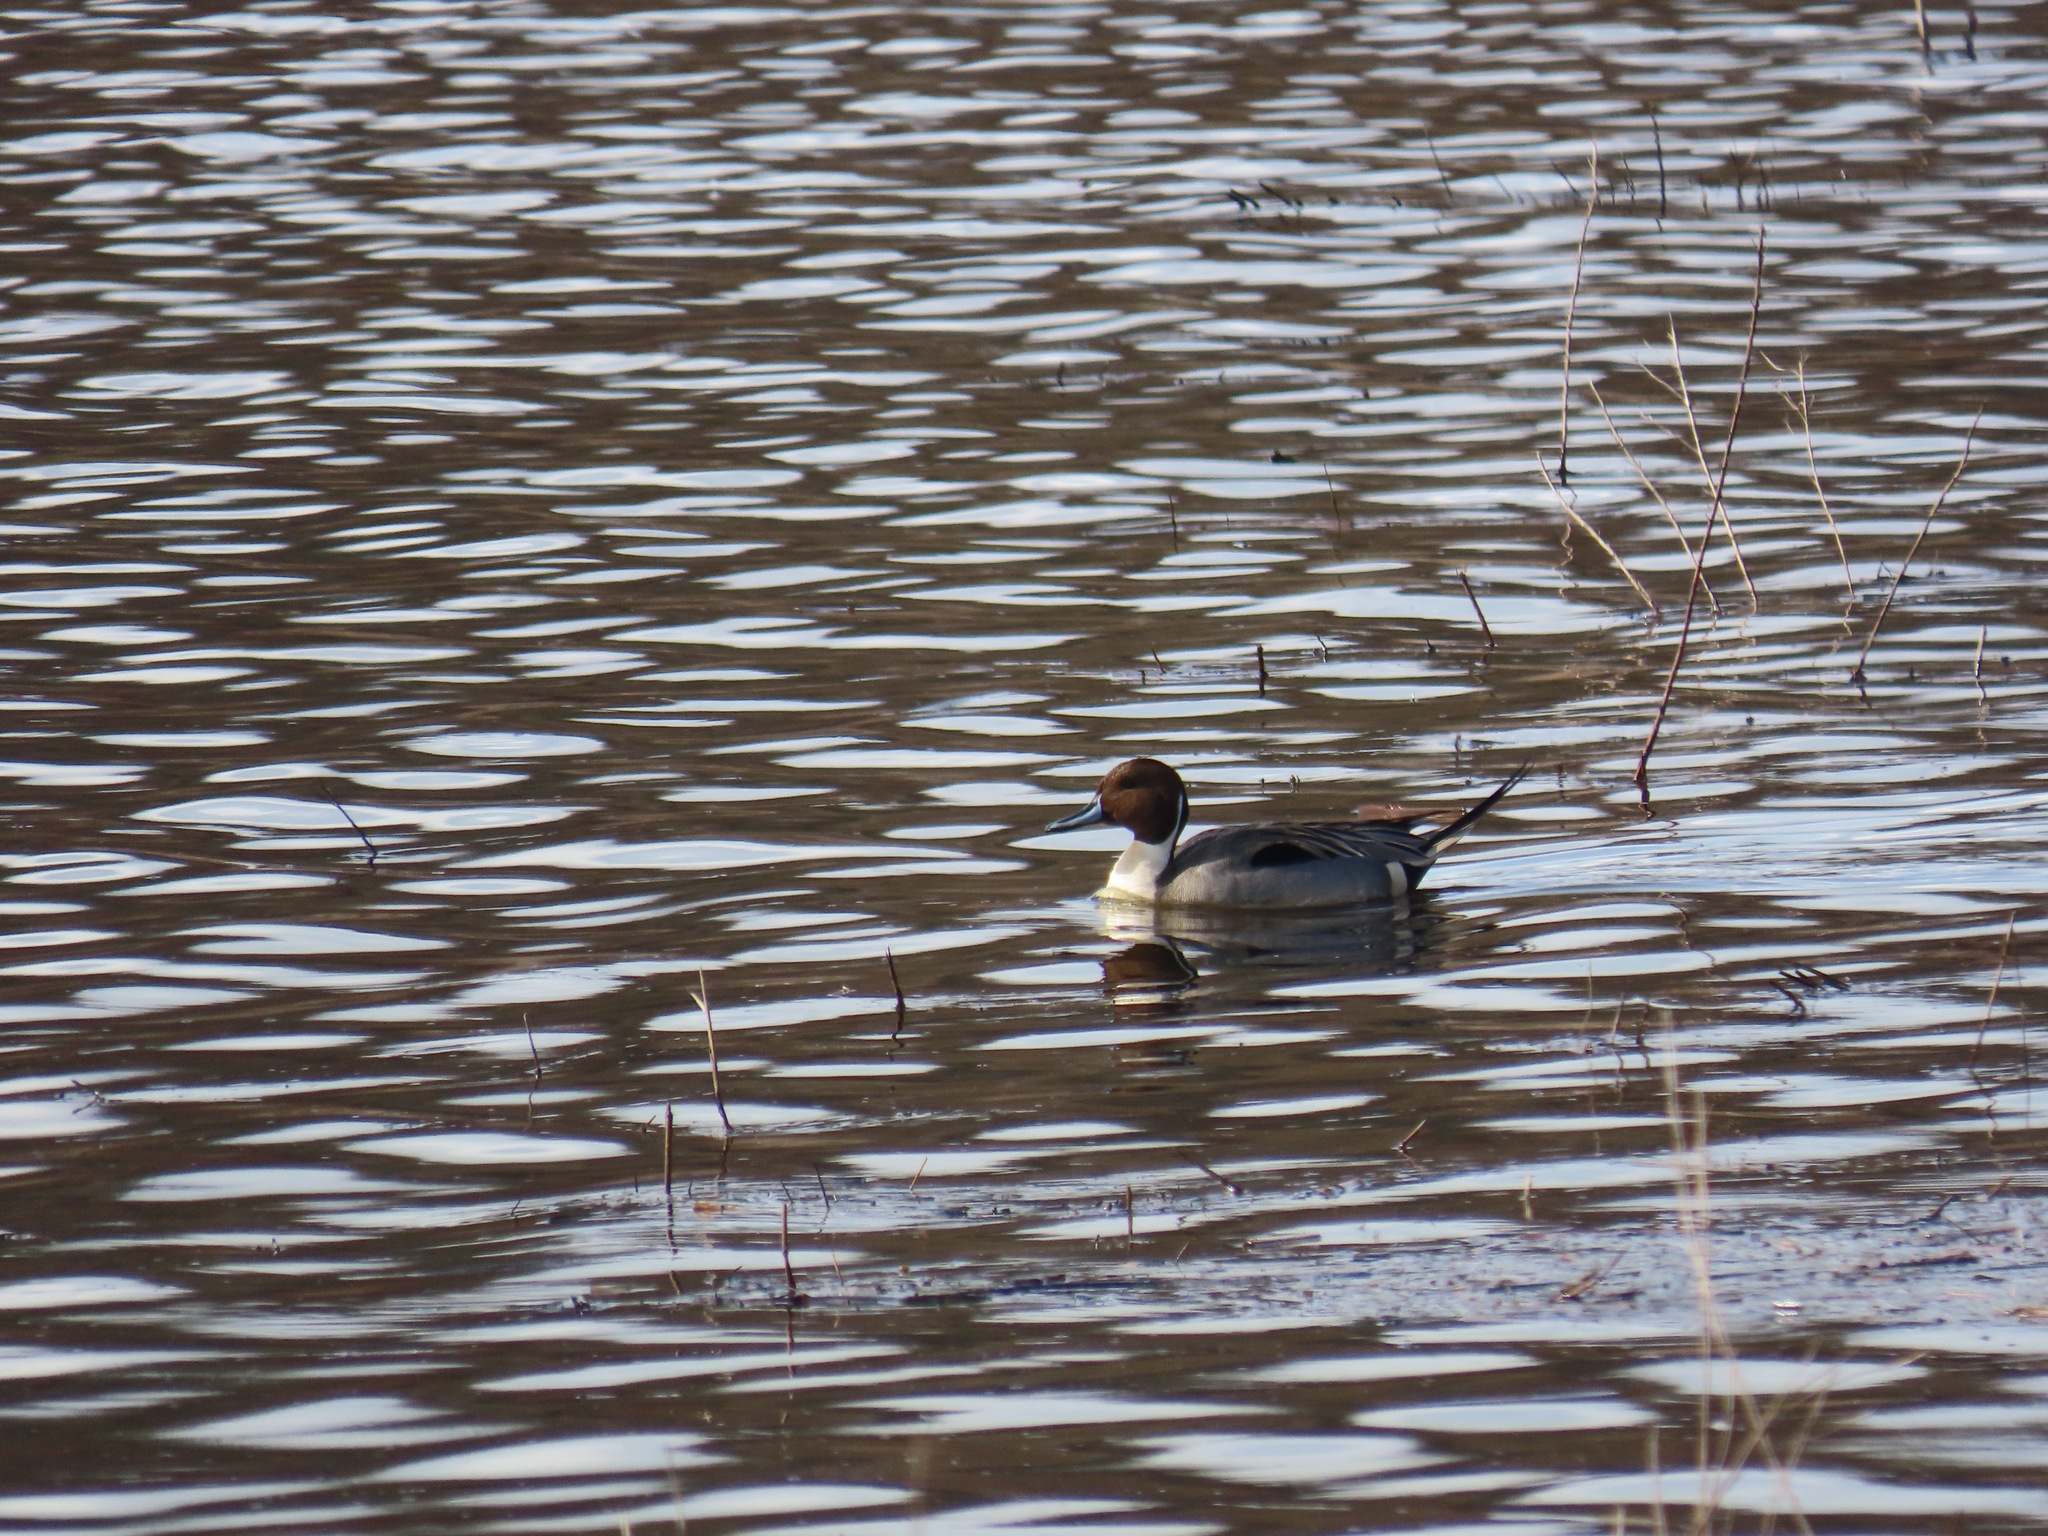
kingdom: Animalia
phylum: Chordata
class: Aves
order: Anseriformes
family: Anatidae
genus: Anas
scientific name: Anas acuta
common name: Northern pintail
